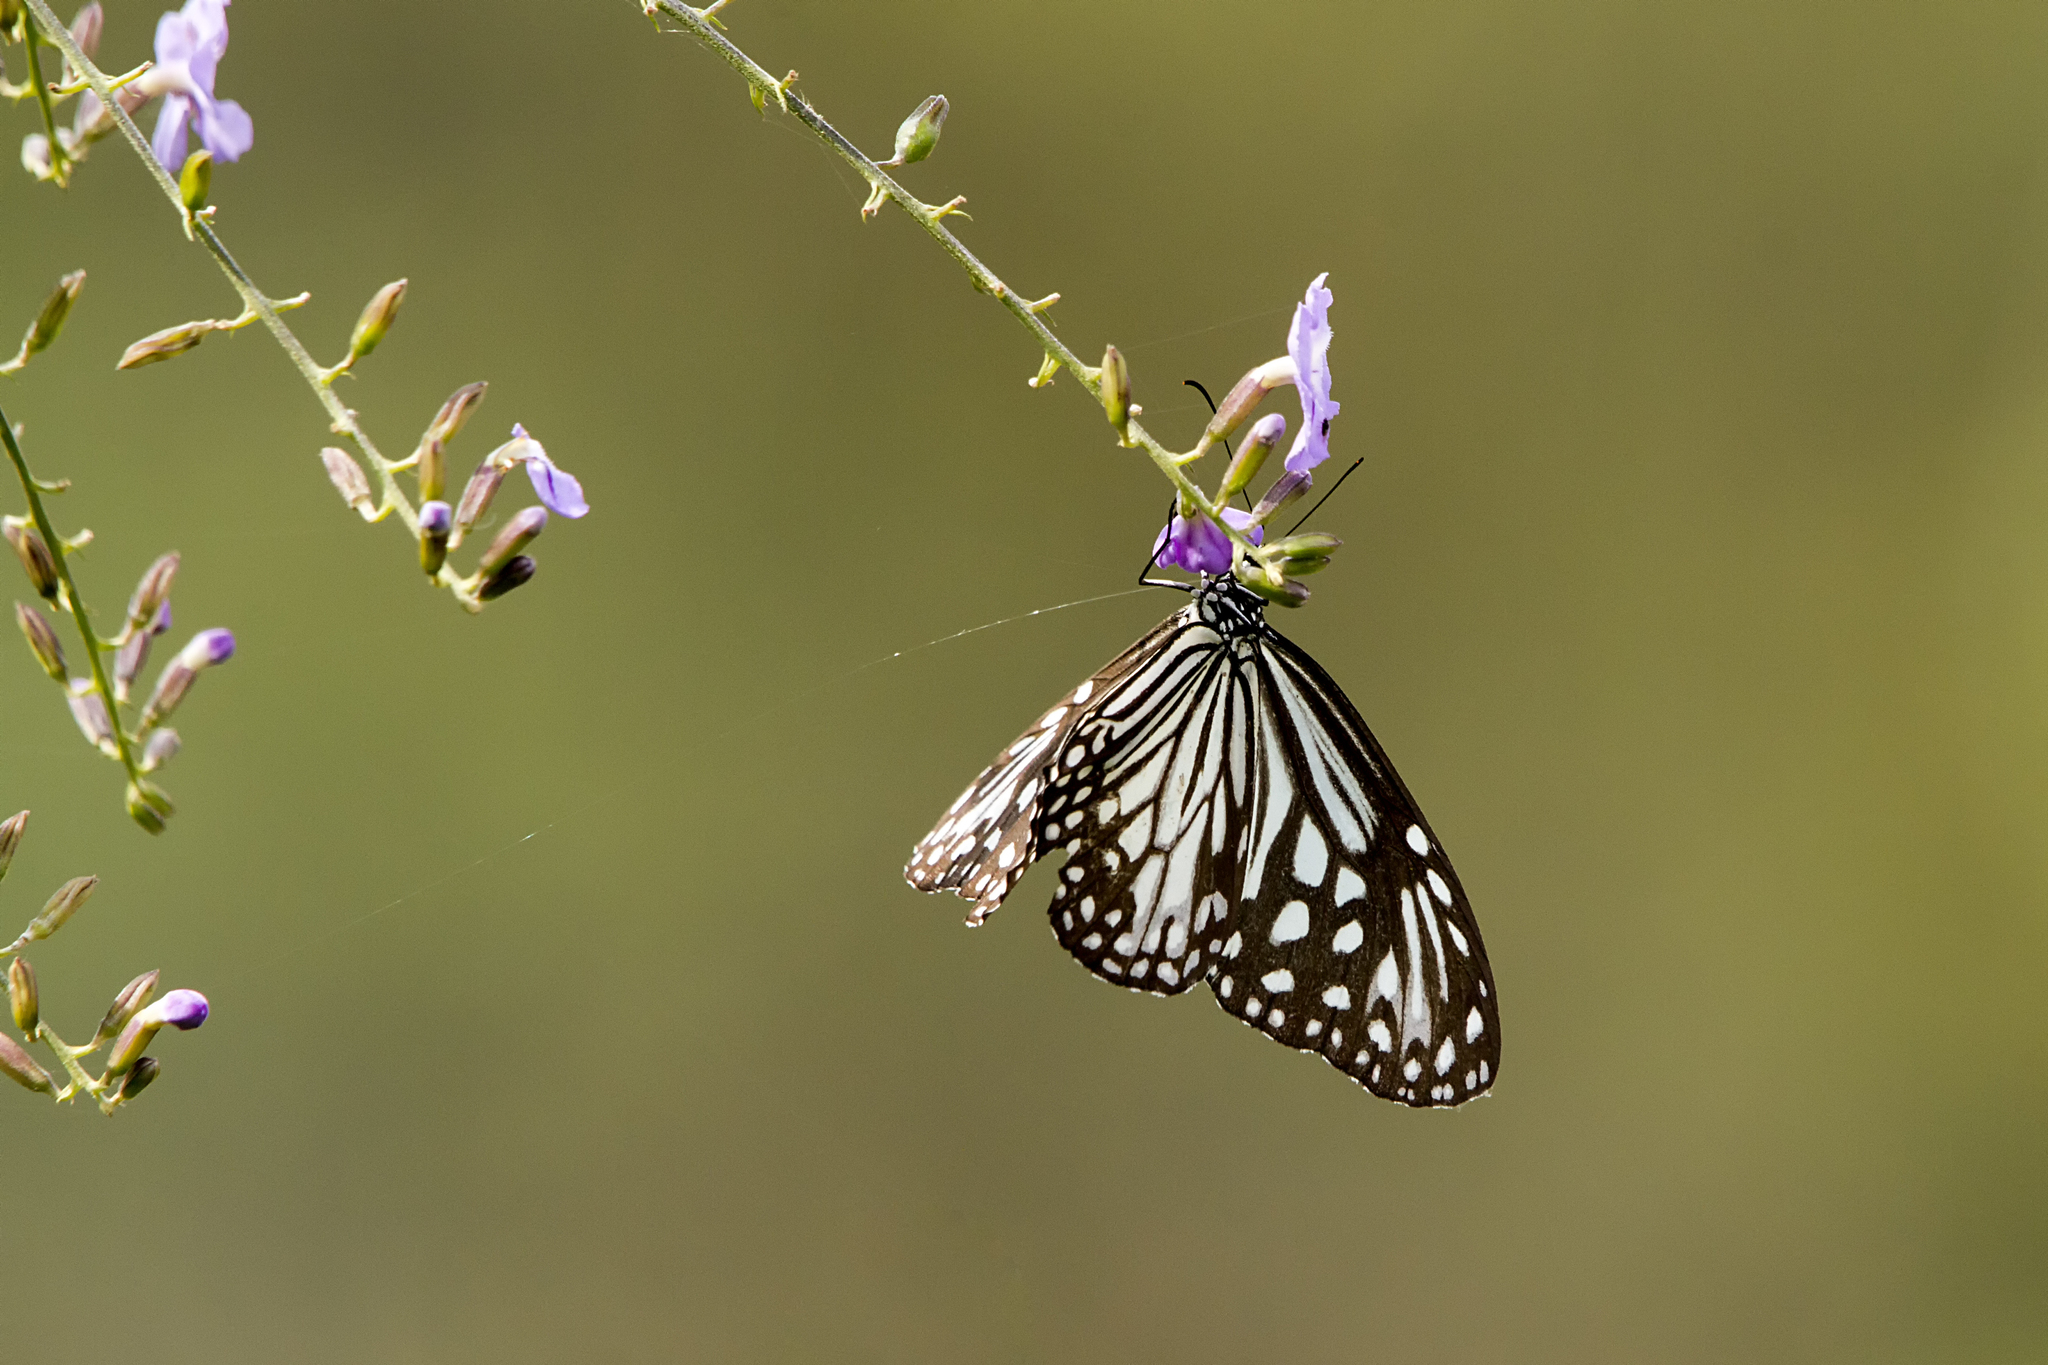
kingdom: Animalia
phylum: Arthropoda
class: Insecta
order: Lepidoptera
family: Nymphalidae
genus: Parantica
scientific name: Parantica aglea
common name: Glassy tiger
